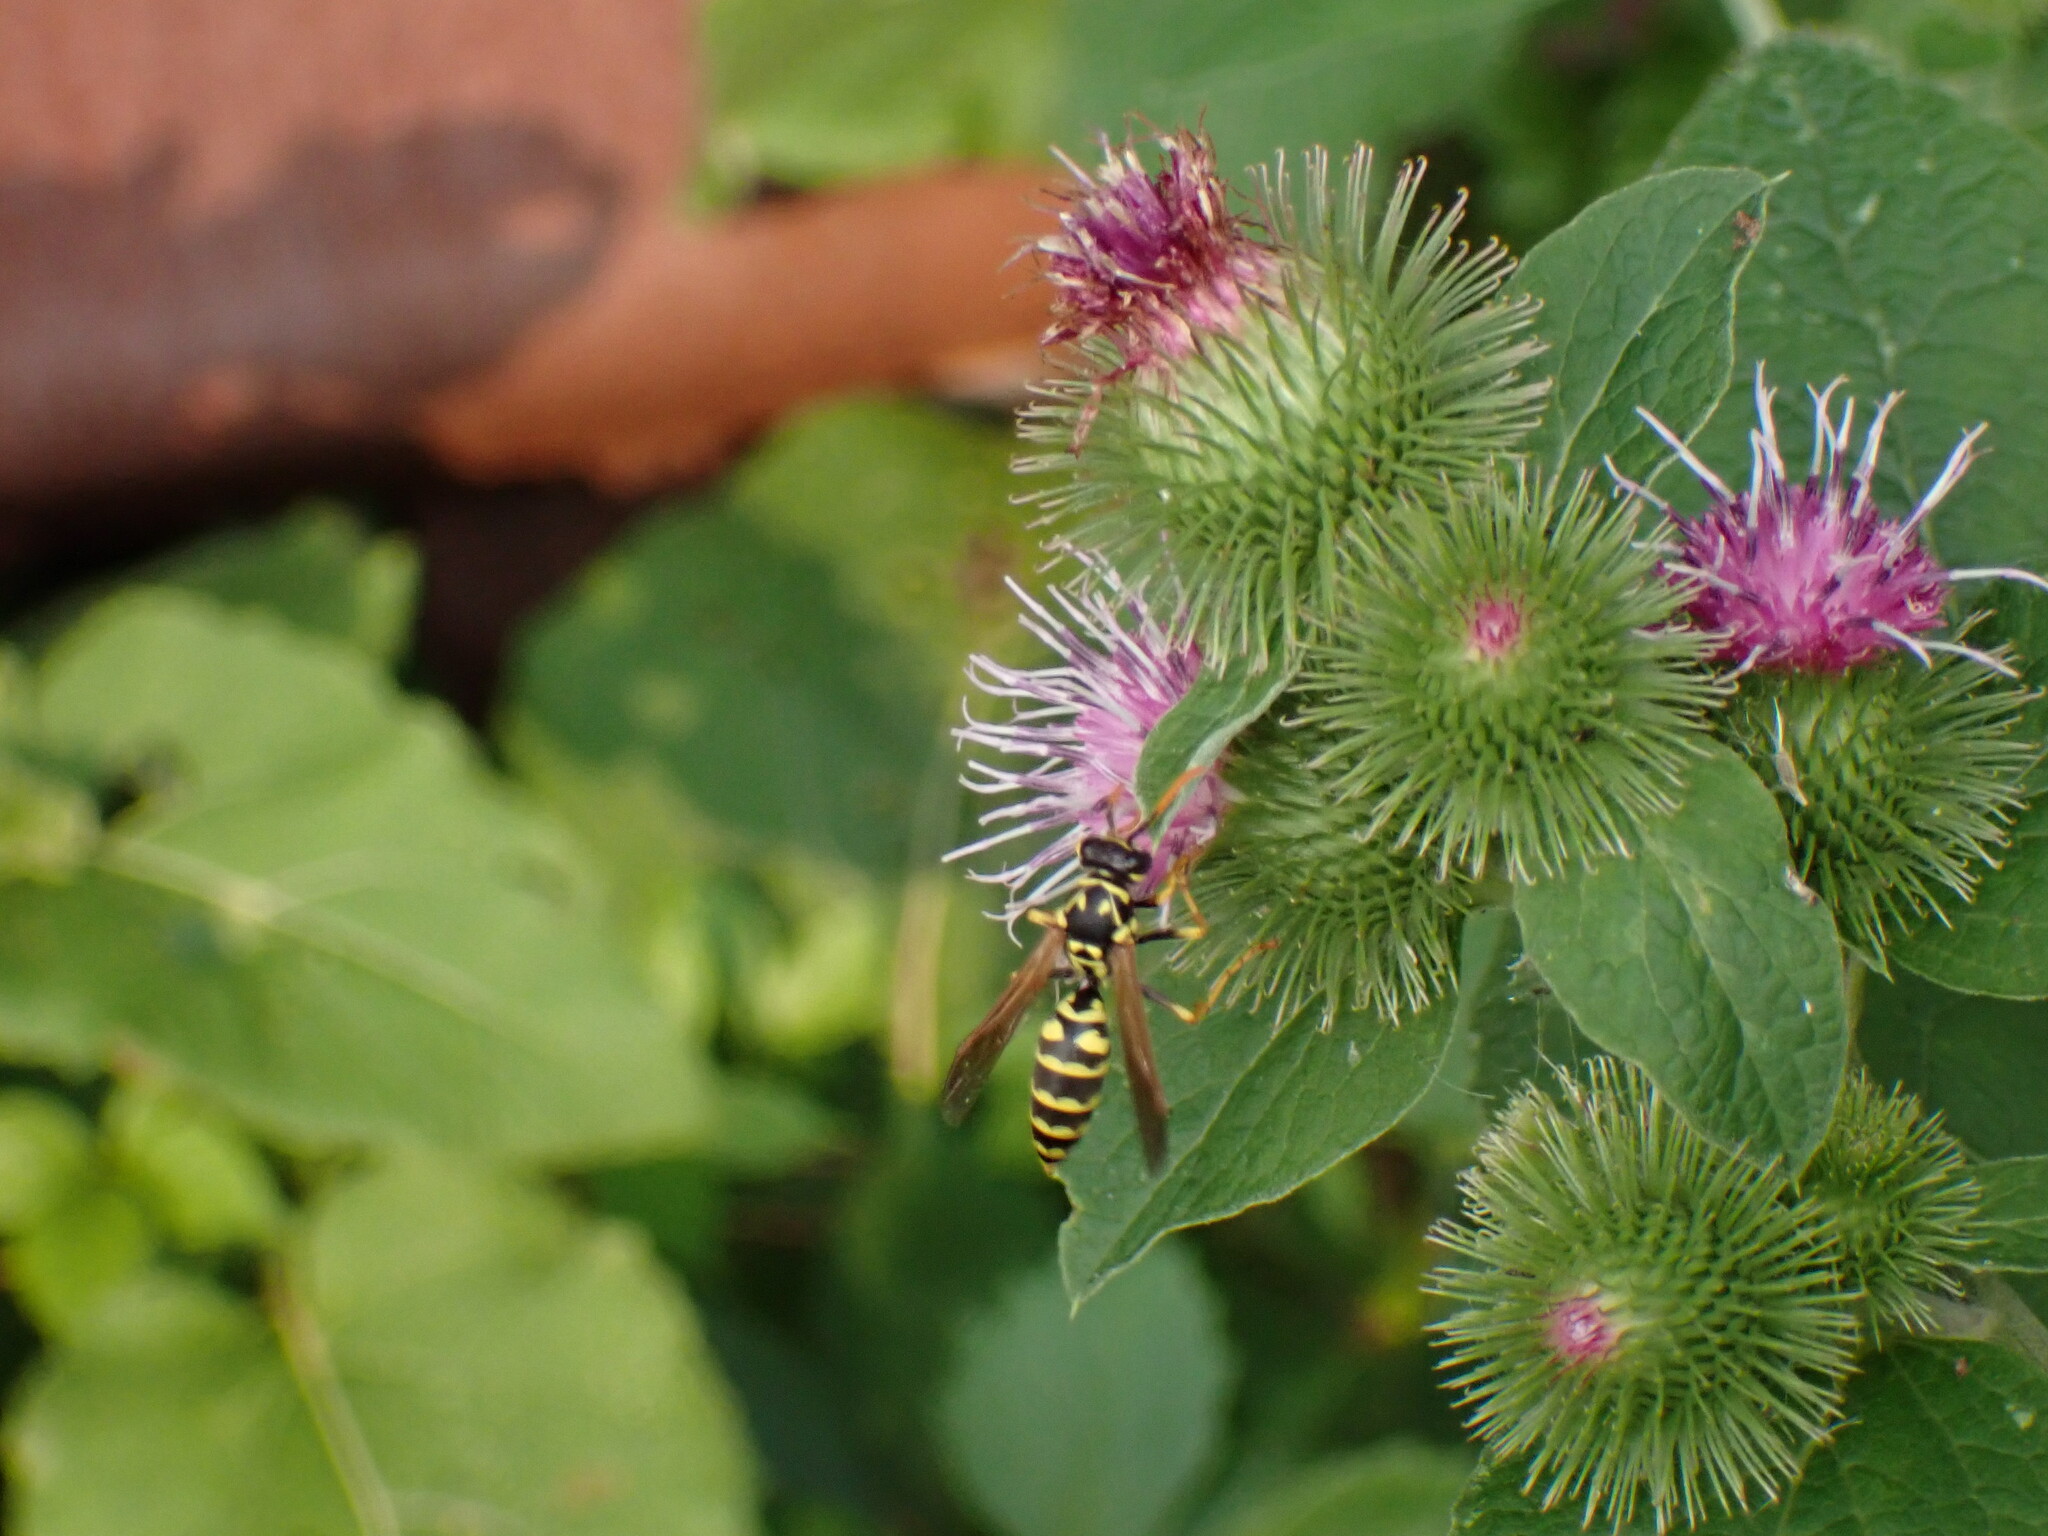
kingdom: Animalia
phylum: Arthropoda
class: Insecta
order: Hymenoptera
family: Eumenidae
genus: Polistes
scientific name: Polistes dominula
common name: Paper wasp
